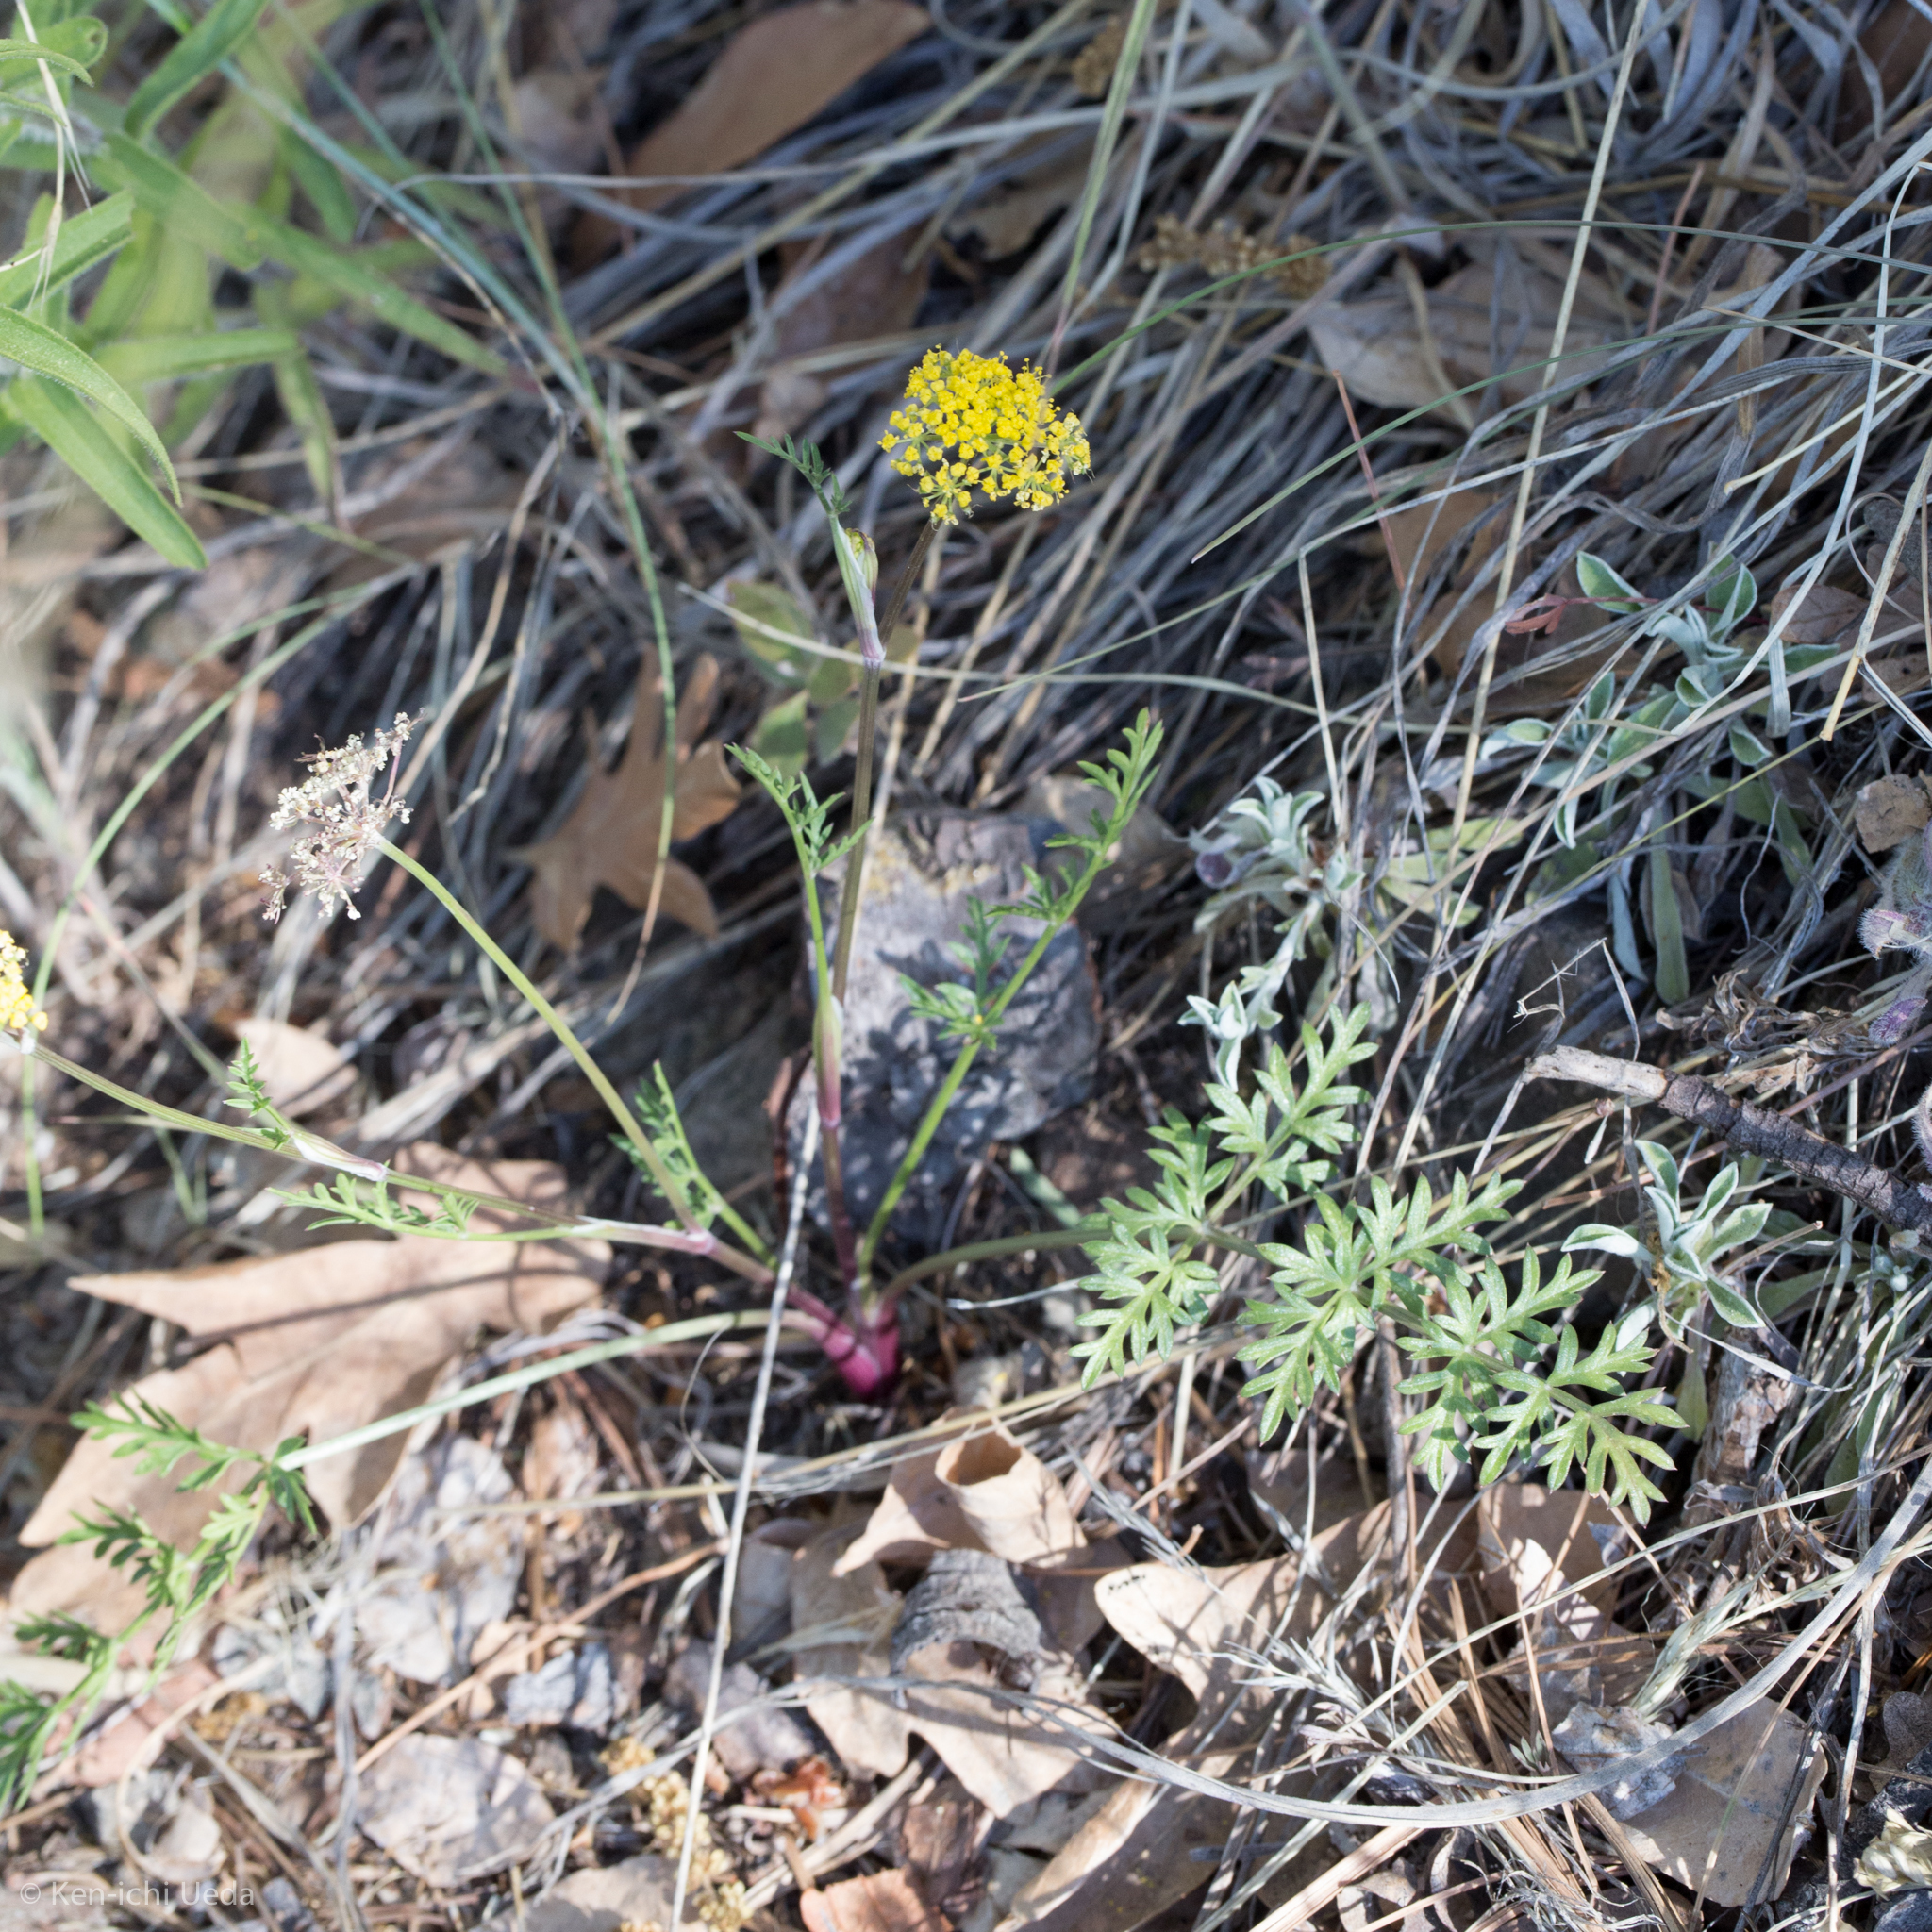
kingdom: Plantae
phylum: Tracheophyta
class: Magnoliopsida
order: Apiales
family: Apiaceae
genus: Cymopterus
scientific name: Cymopterus lemmonii
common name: Lemmon's spring-parsley
